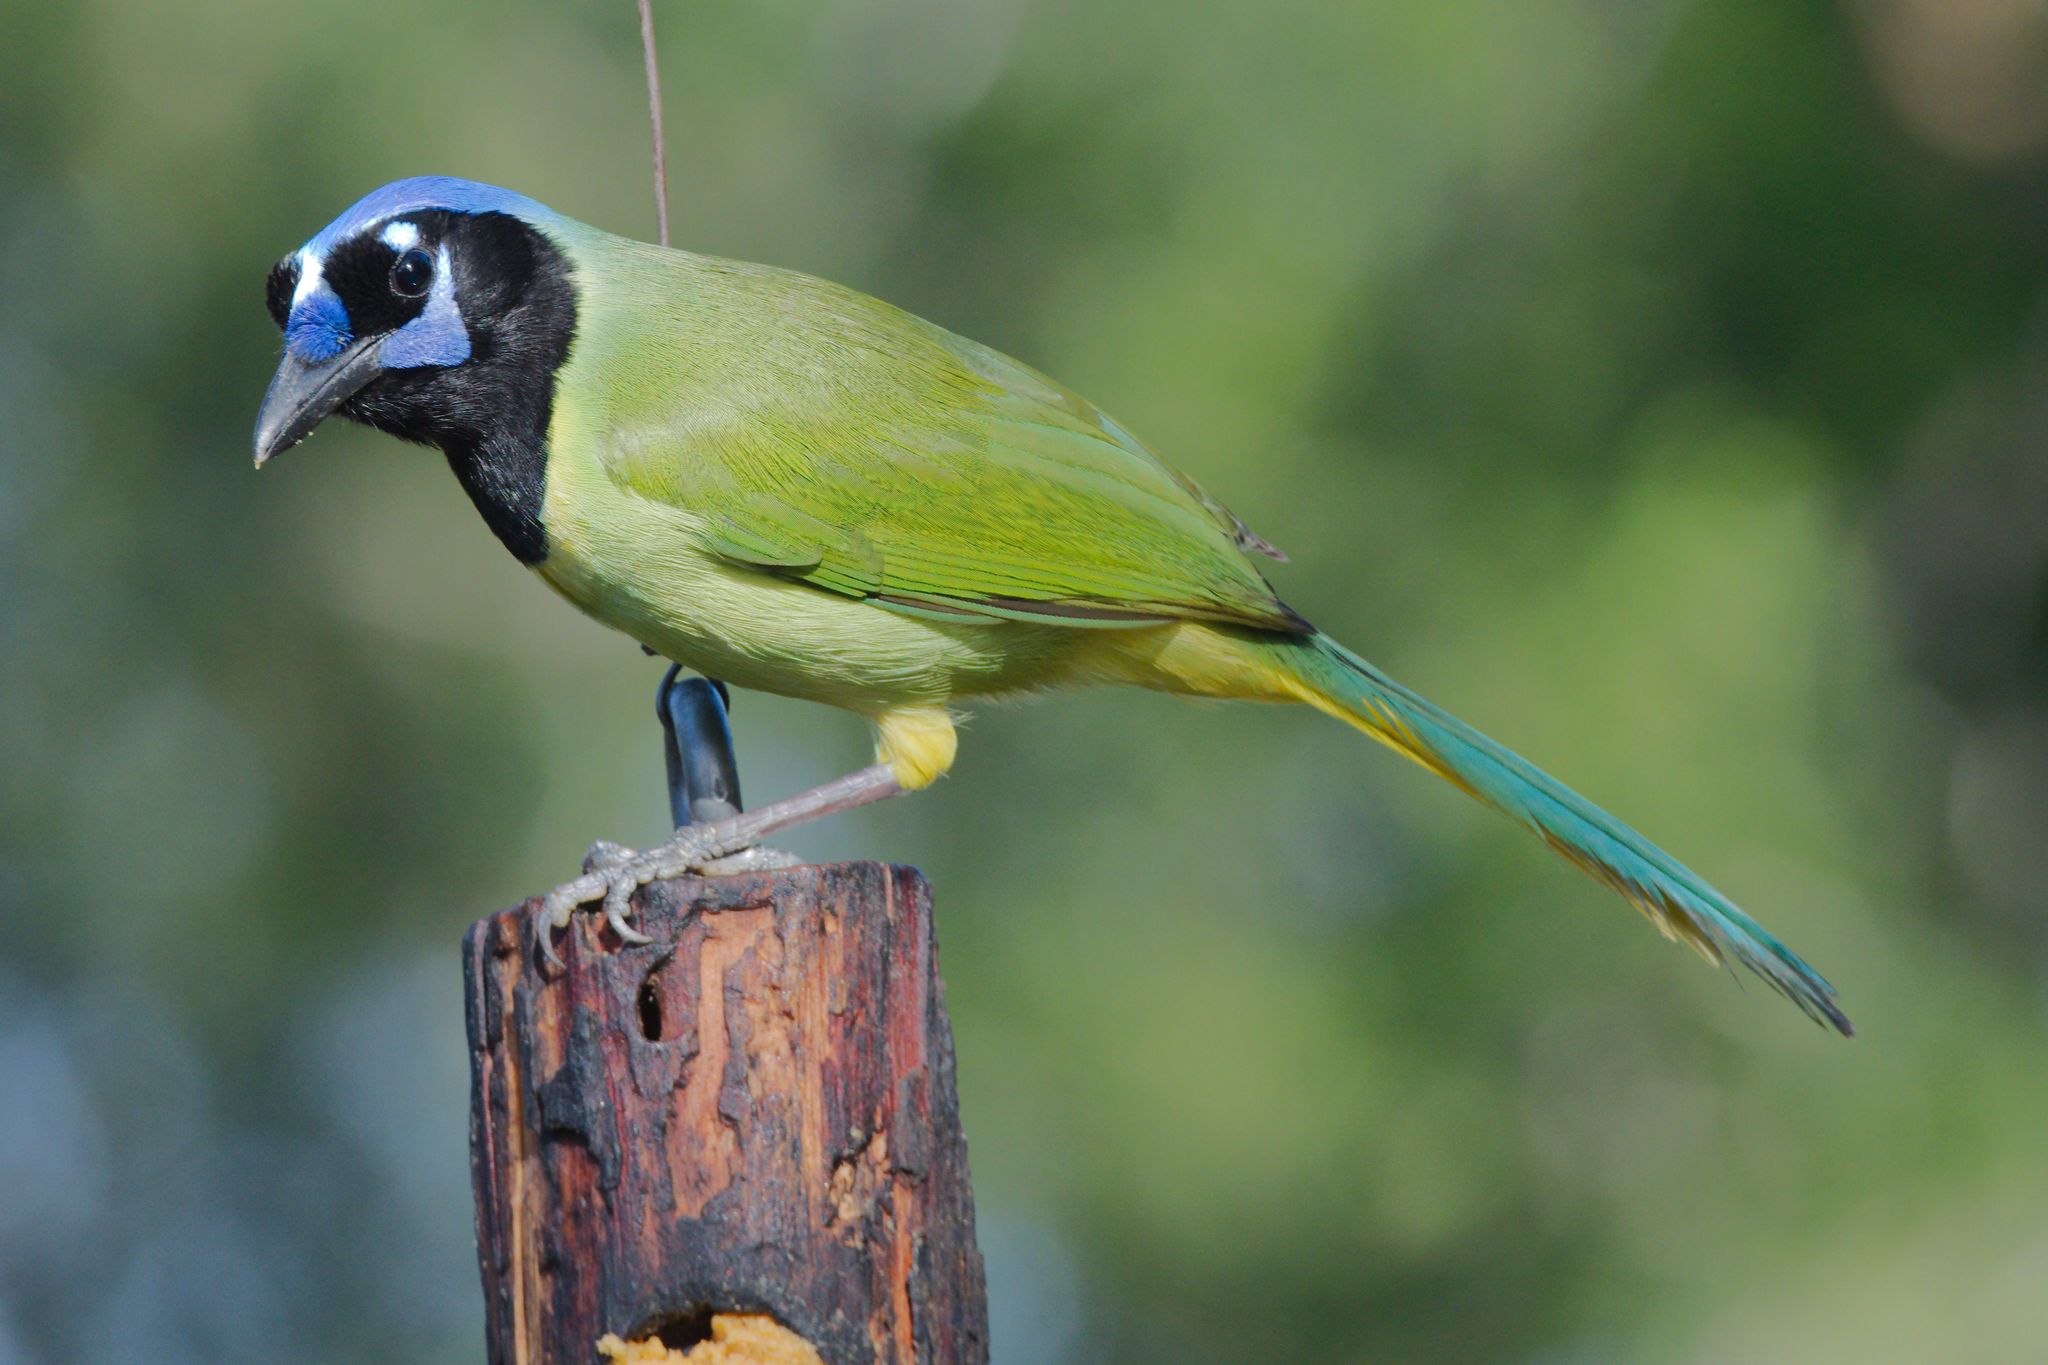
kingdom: Animalia
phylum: Chordata
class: Aves
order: Passeriformes
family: Corvidae
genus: Cyanocorax
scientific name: Cyanocorax yncas
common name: Green jay
